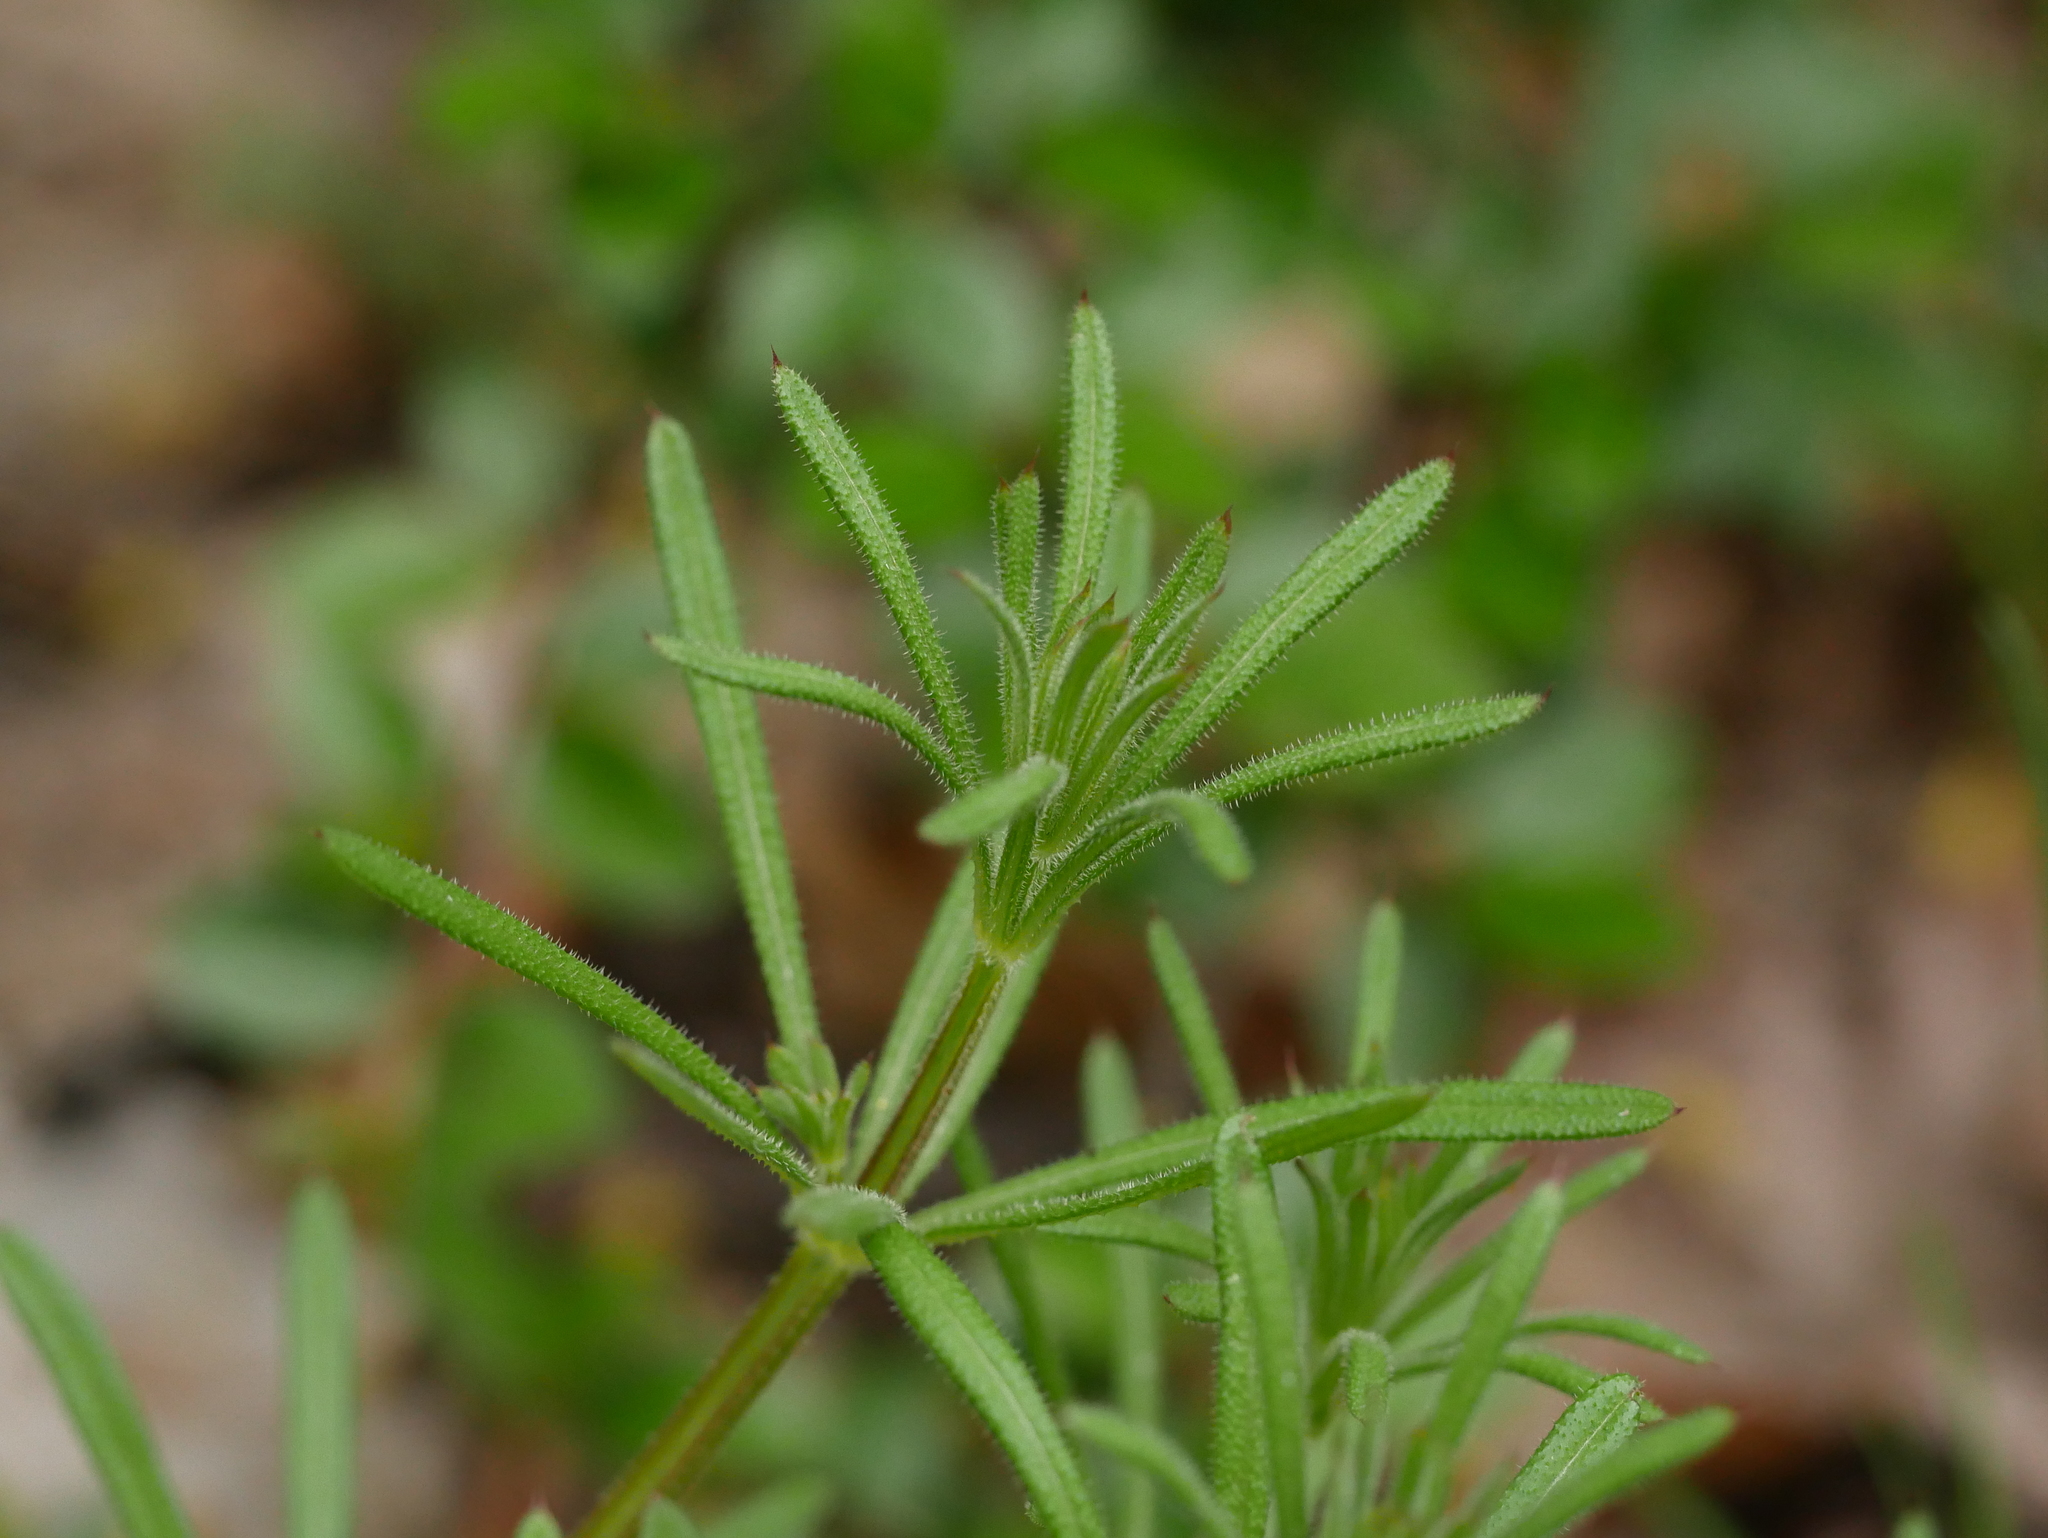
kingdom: Plantae
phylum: Tracheophyta
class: Magnoliopsida
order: Gentianales
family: Rubiaceae
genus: Galium
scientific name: Galium aparine
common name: Cleavers
